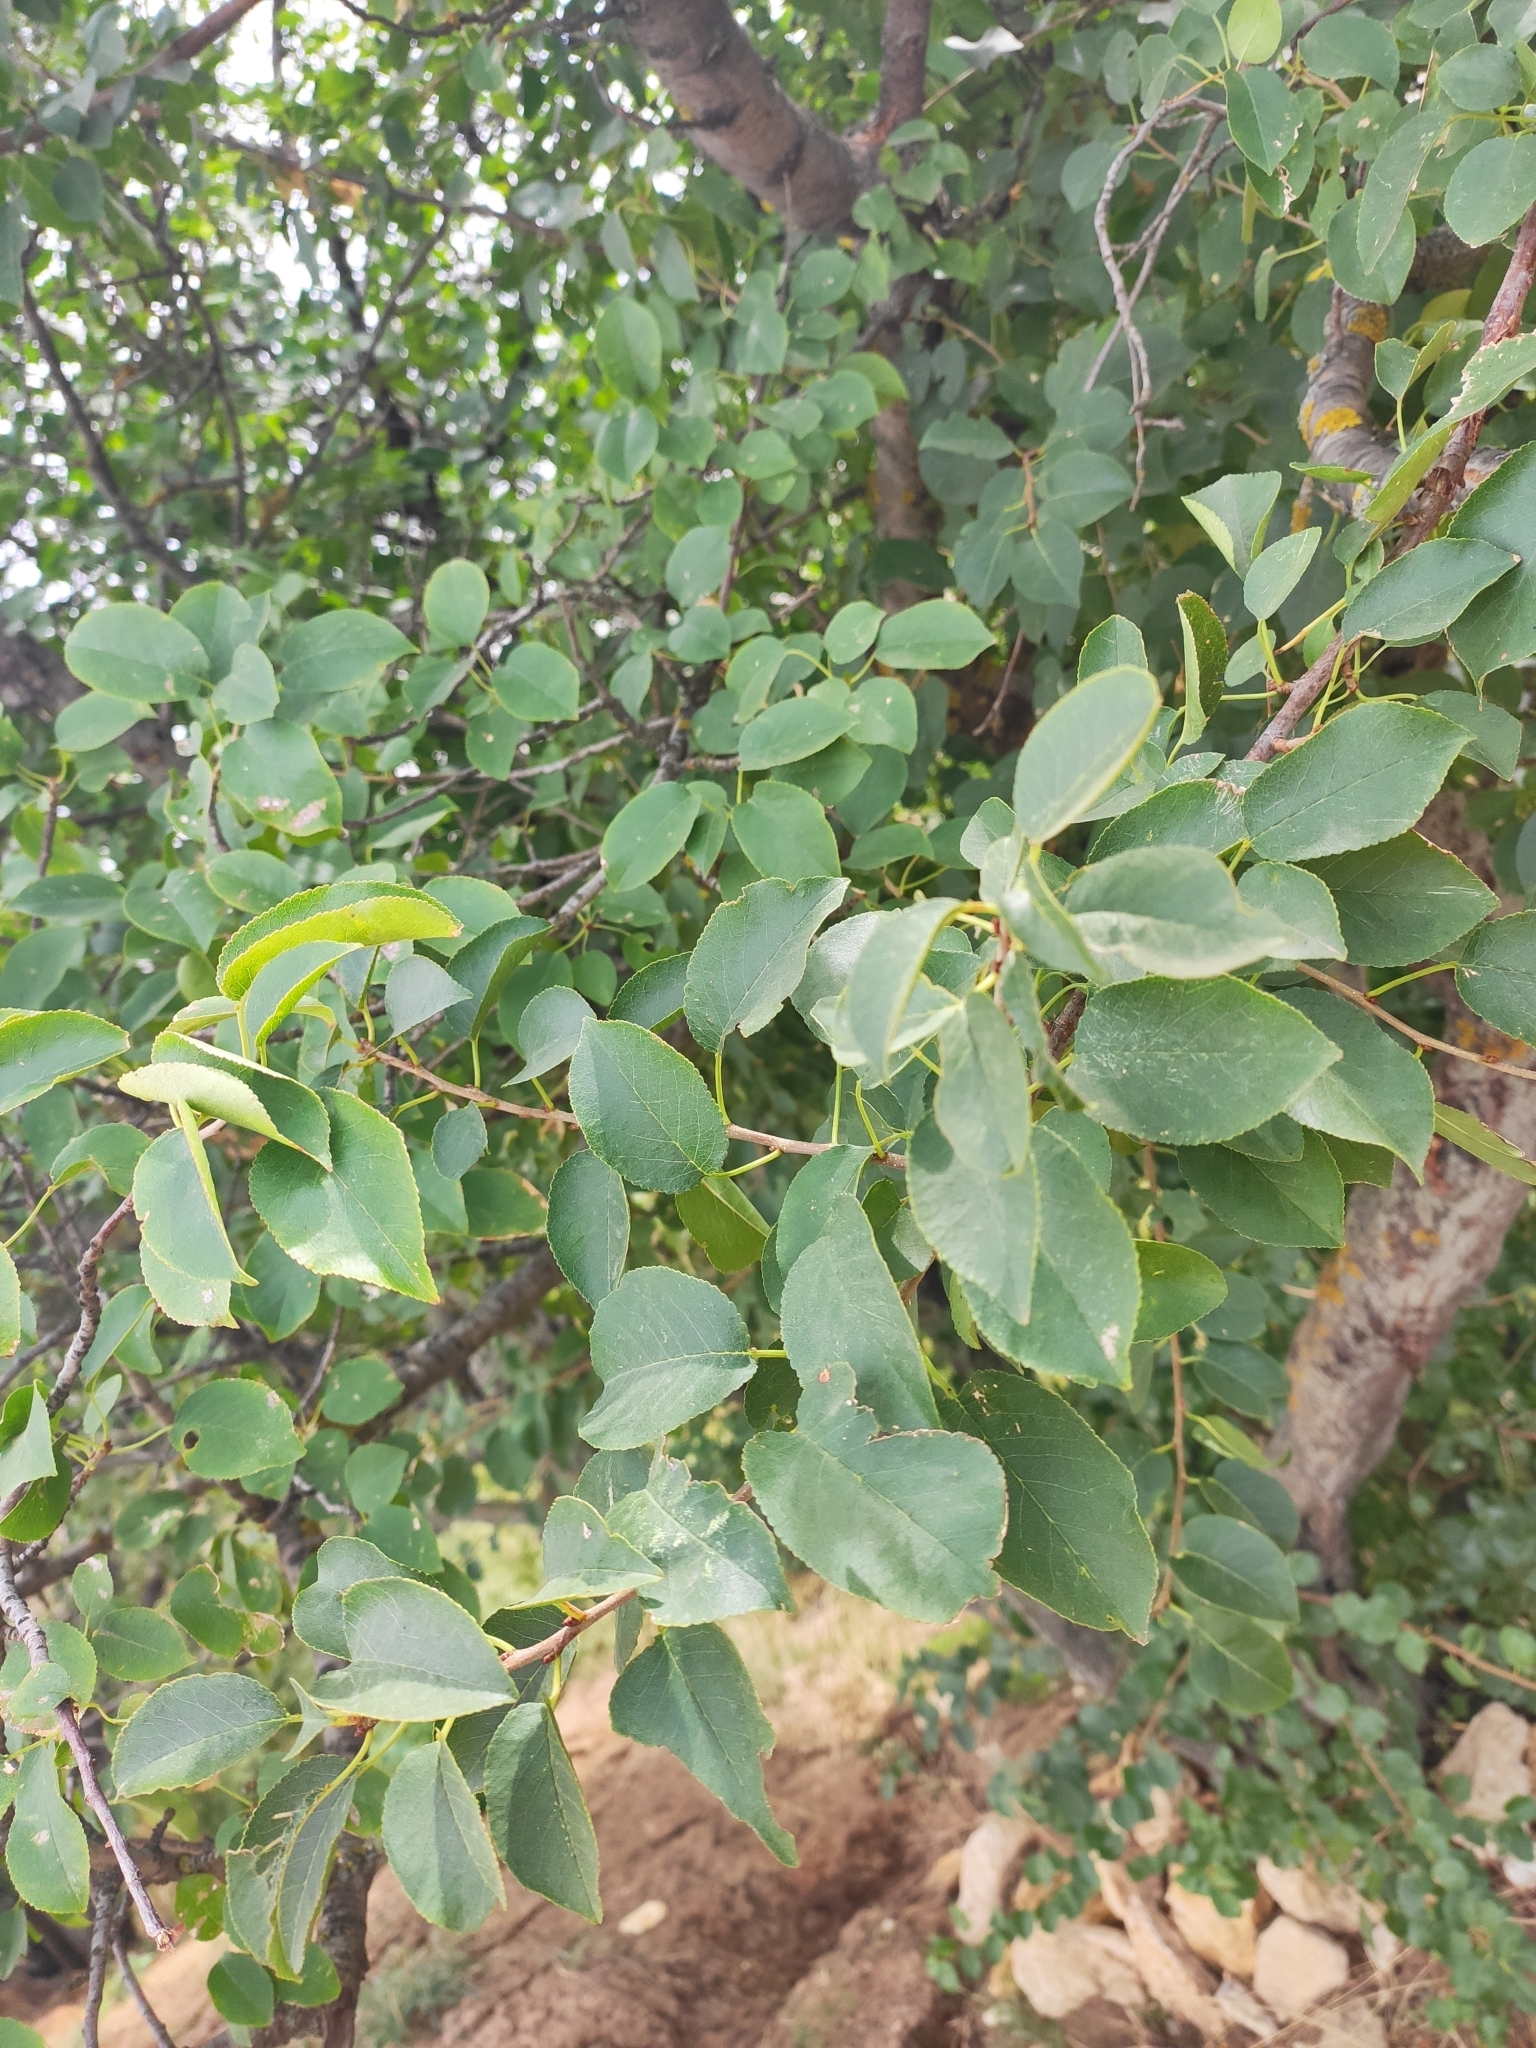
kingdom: Plantae
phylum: Tracheophyta
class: Magnoliopsida
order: Rosales
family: Rosaceae
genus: Prunus
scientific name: Prunus mahaleb
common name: Mahaleb cherry
